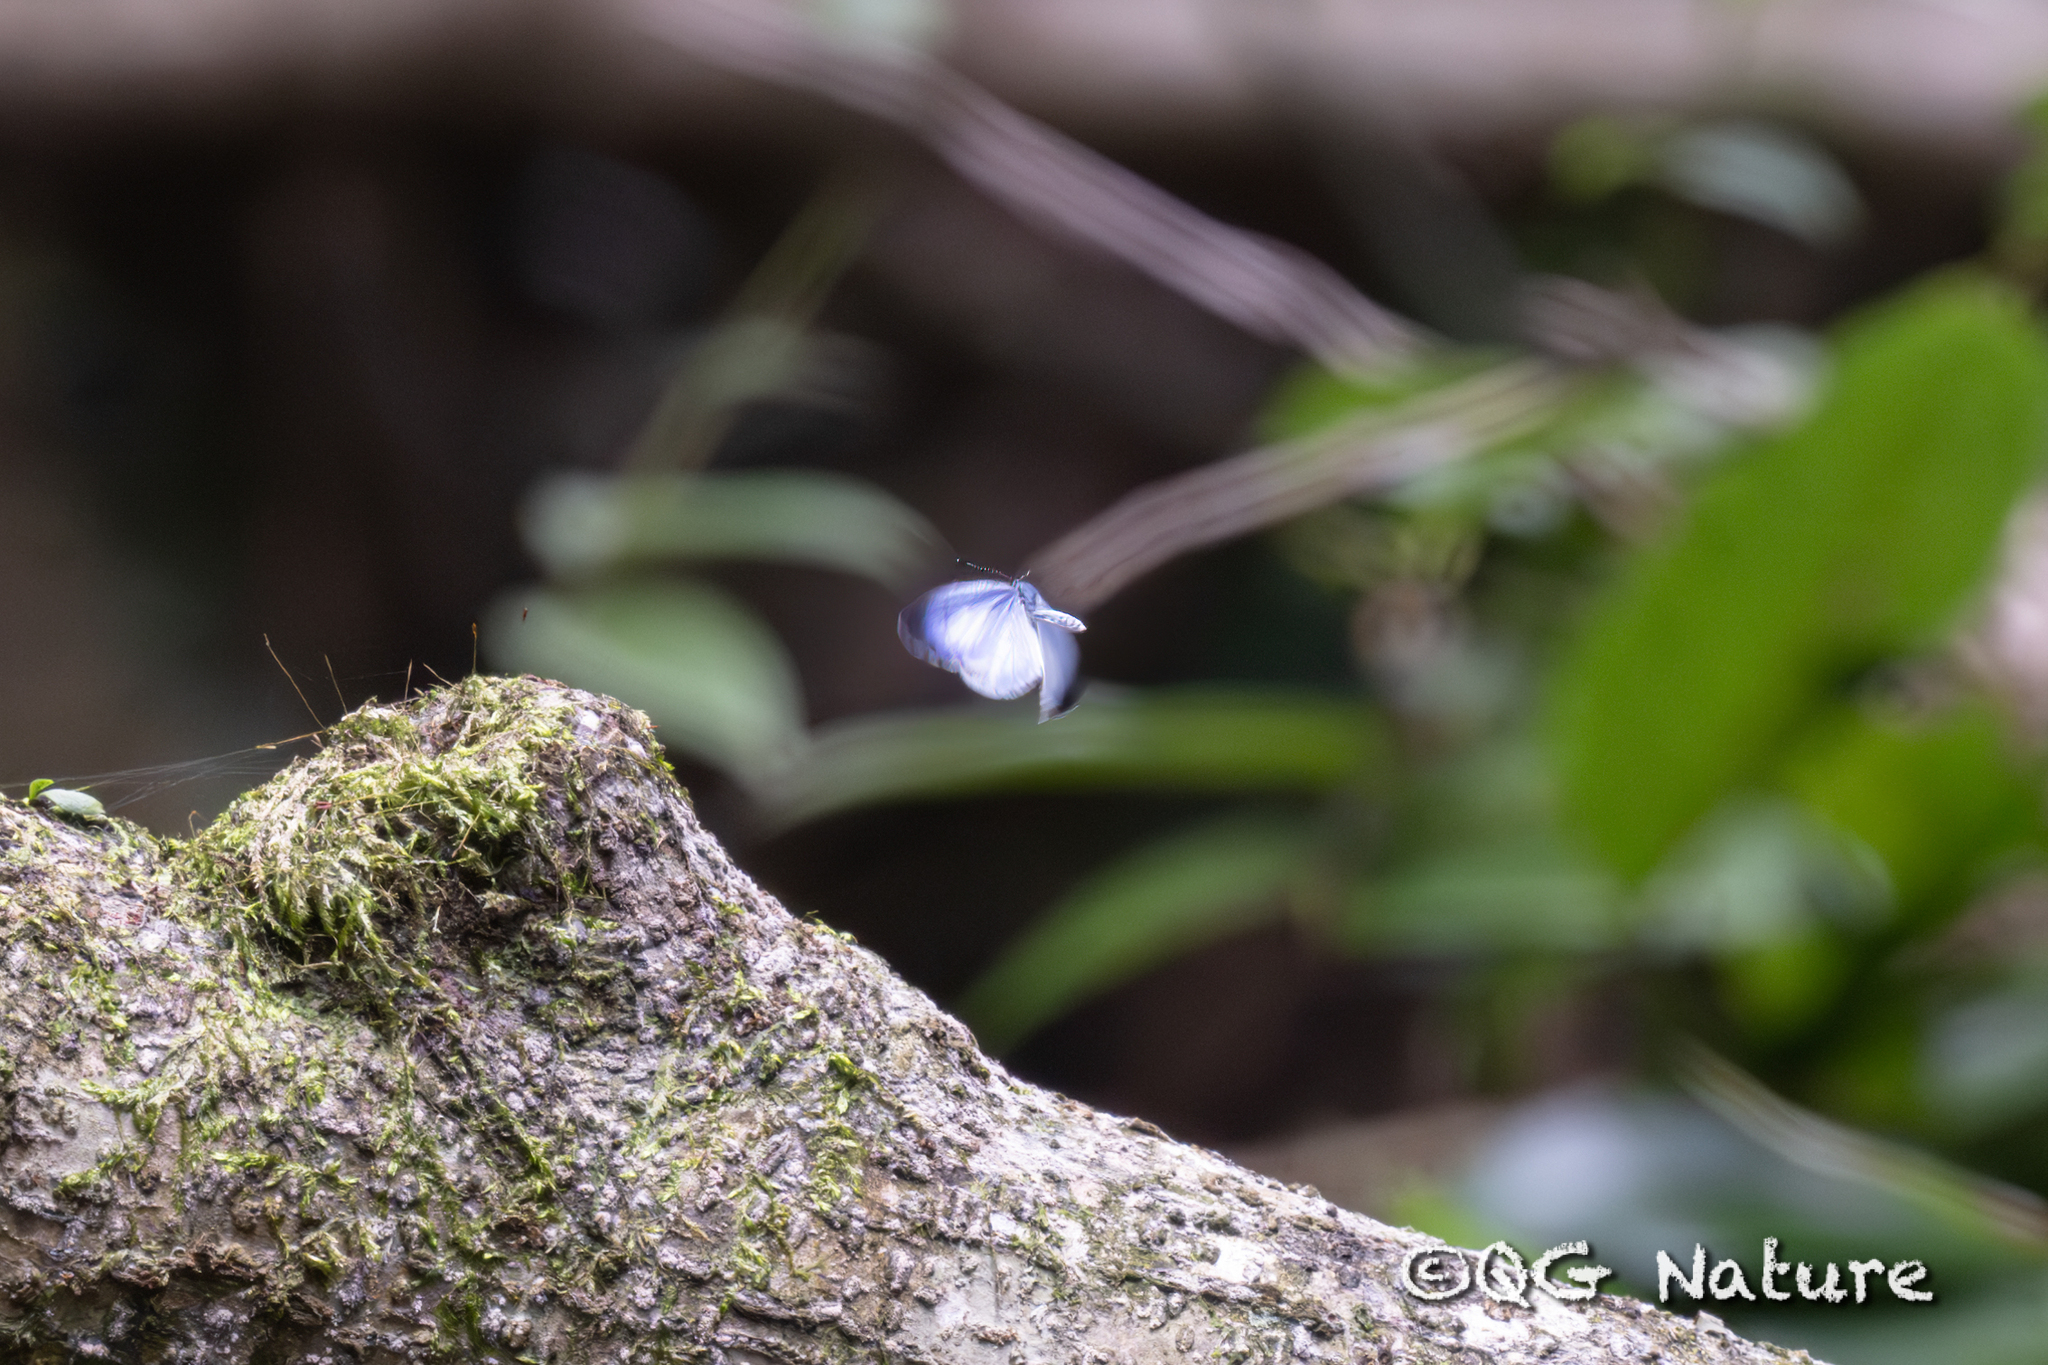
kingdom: Animalia
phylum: Arthropoda
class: Insecta
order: Lepidoptera
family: Lycaenidae
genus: Udara
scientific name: Udara albocaerulea
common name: Albocerulean
